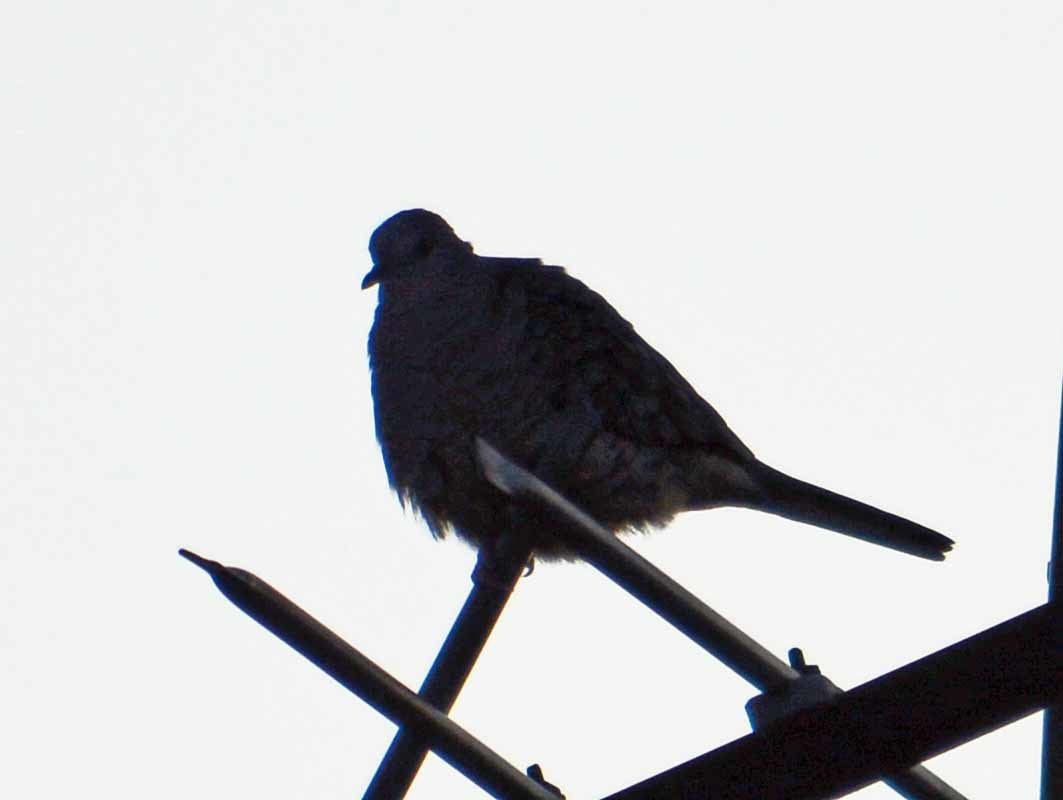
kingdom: Animalia
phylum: Chordata
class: Aves
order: Columbiformes
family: Columbidae
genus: Columbina
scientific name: Columbina inca
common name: Inca dove
